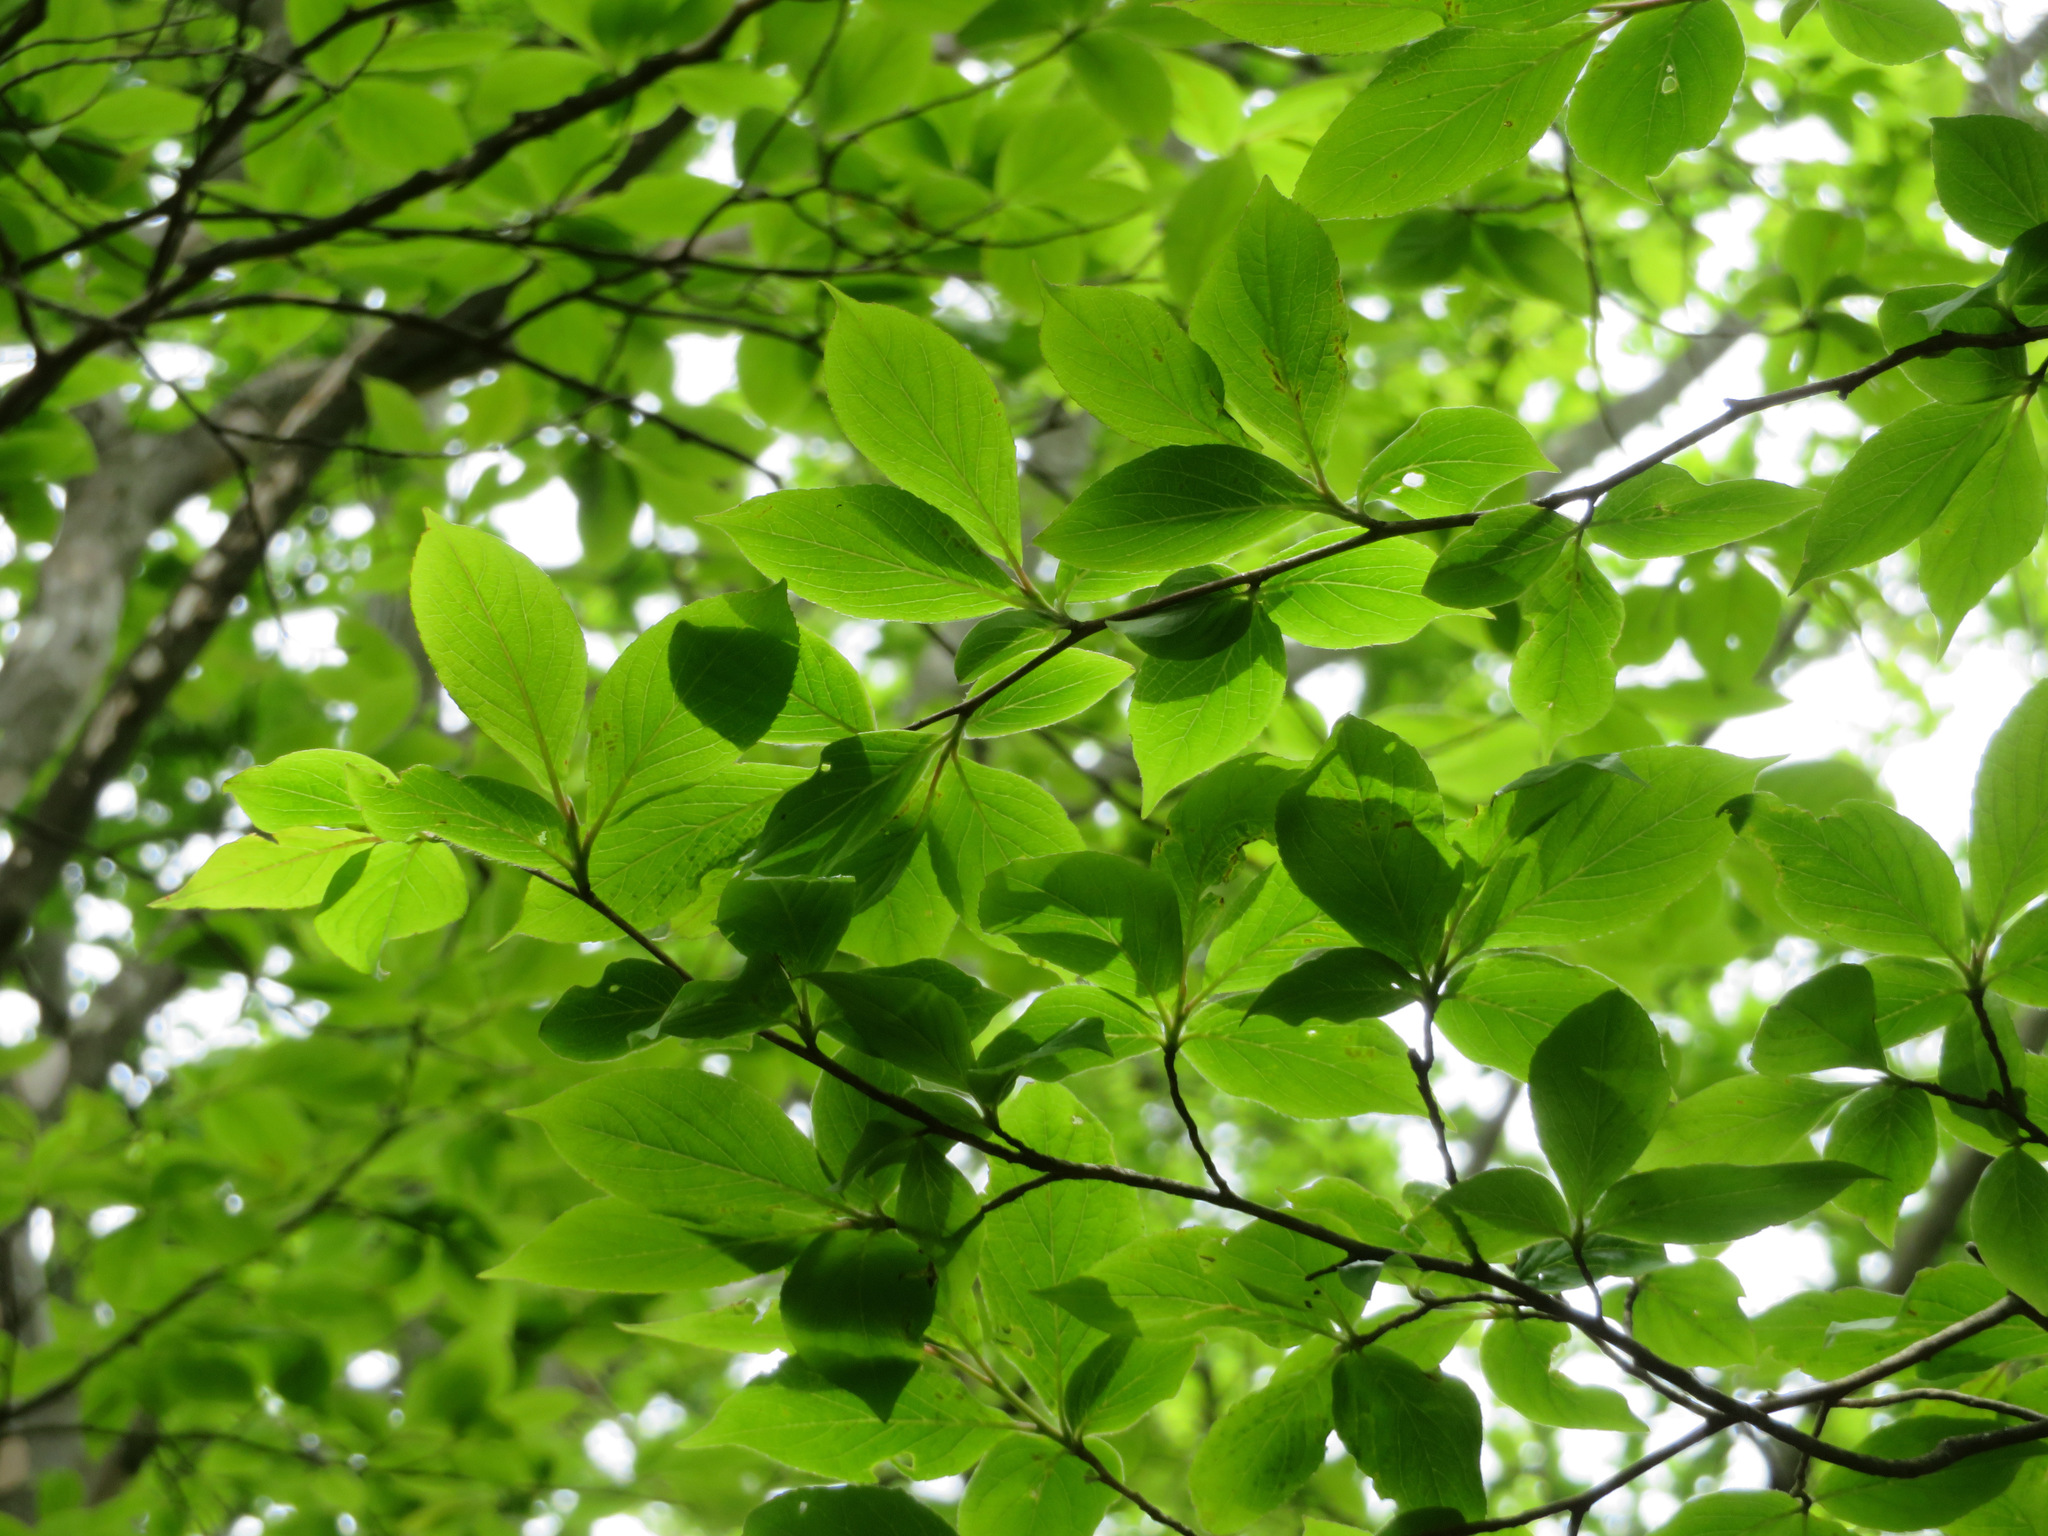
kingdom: Plantae
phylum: Tracheophyta
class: Magnoliopsida
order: Ericales
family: Theaceae
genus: Stewartia
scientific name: Stewartia pseudocamellia
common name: Japanese stewartia
